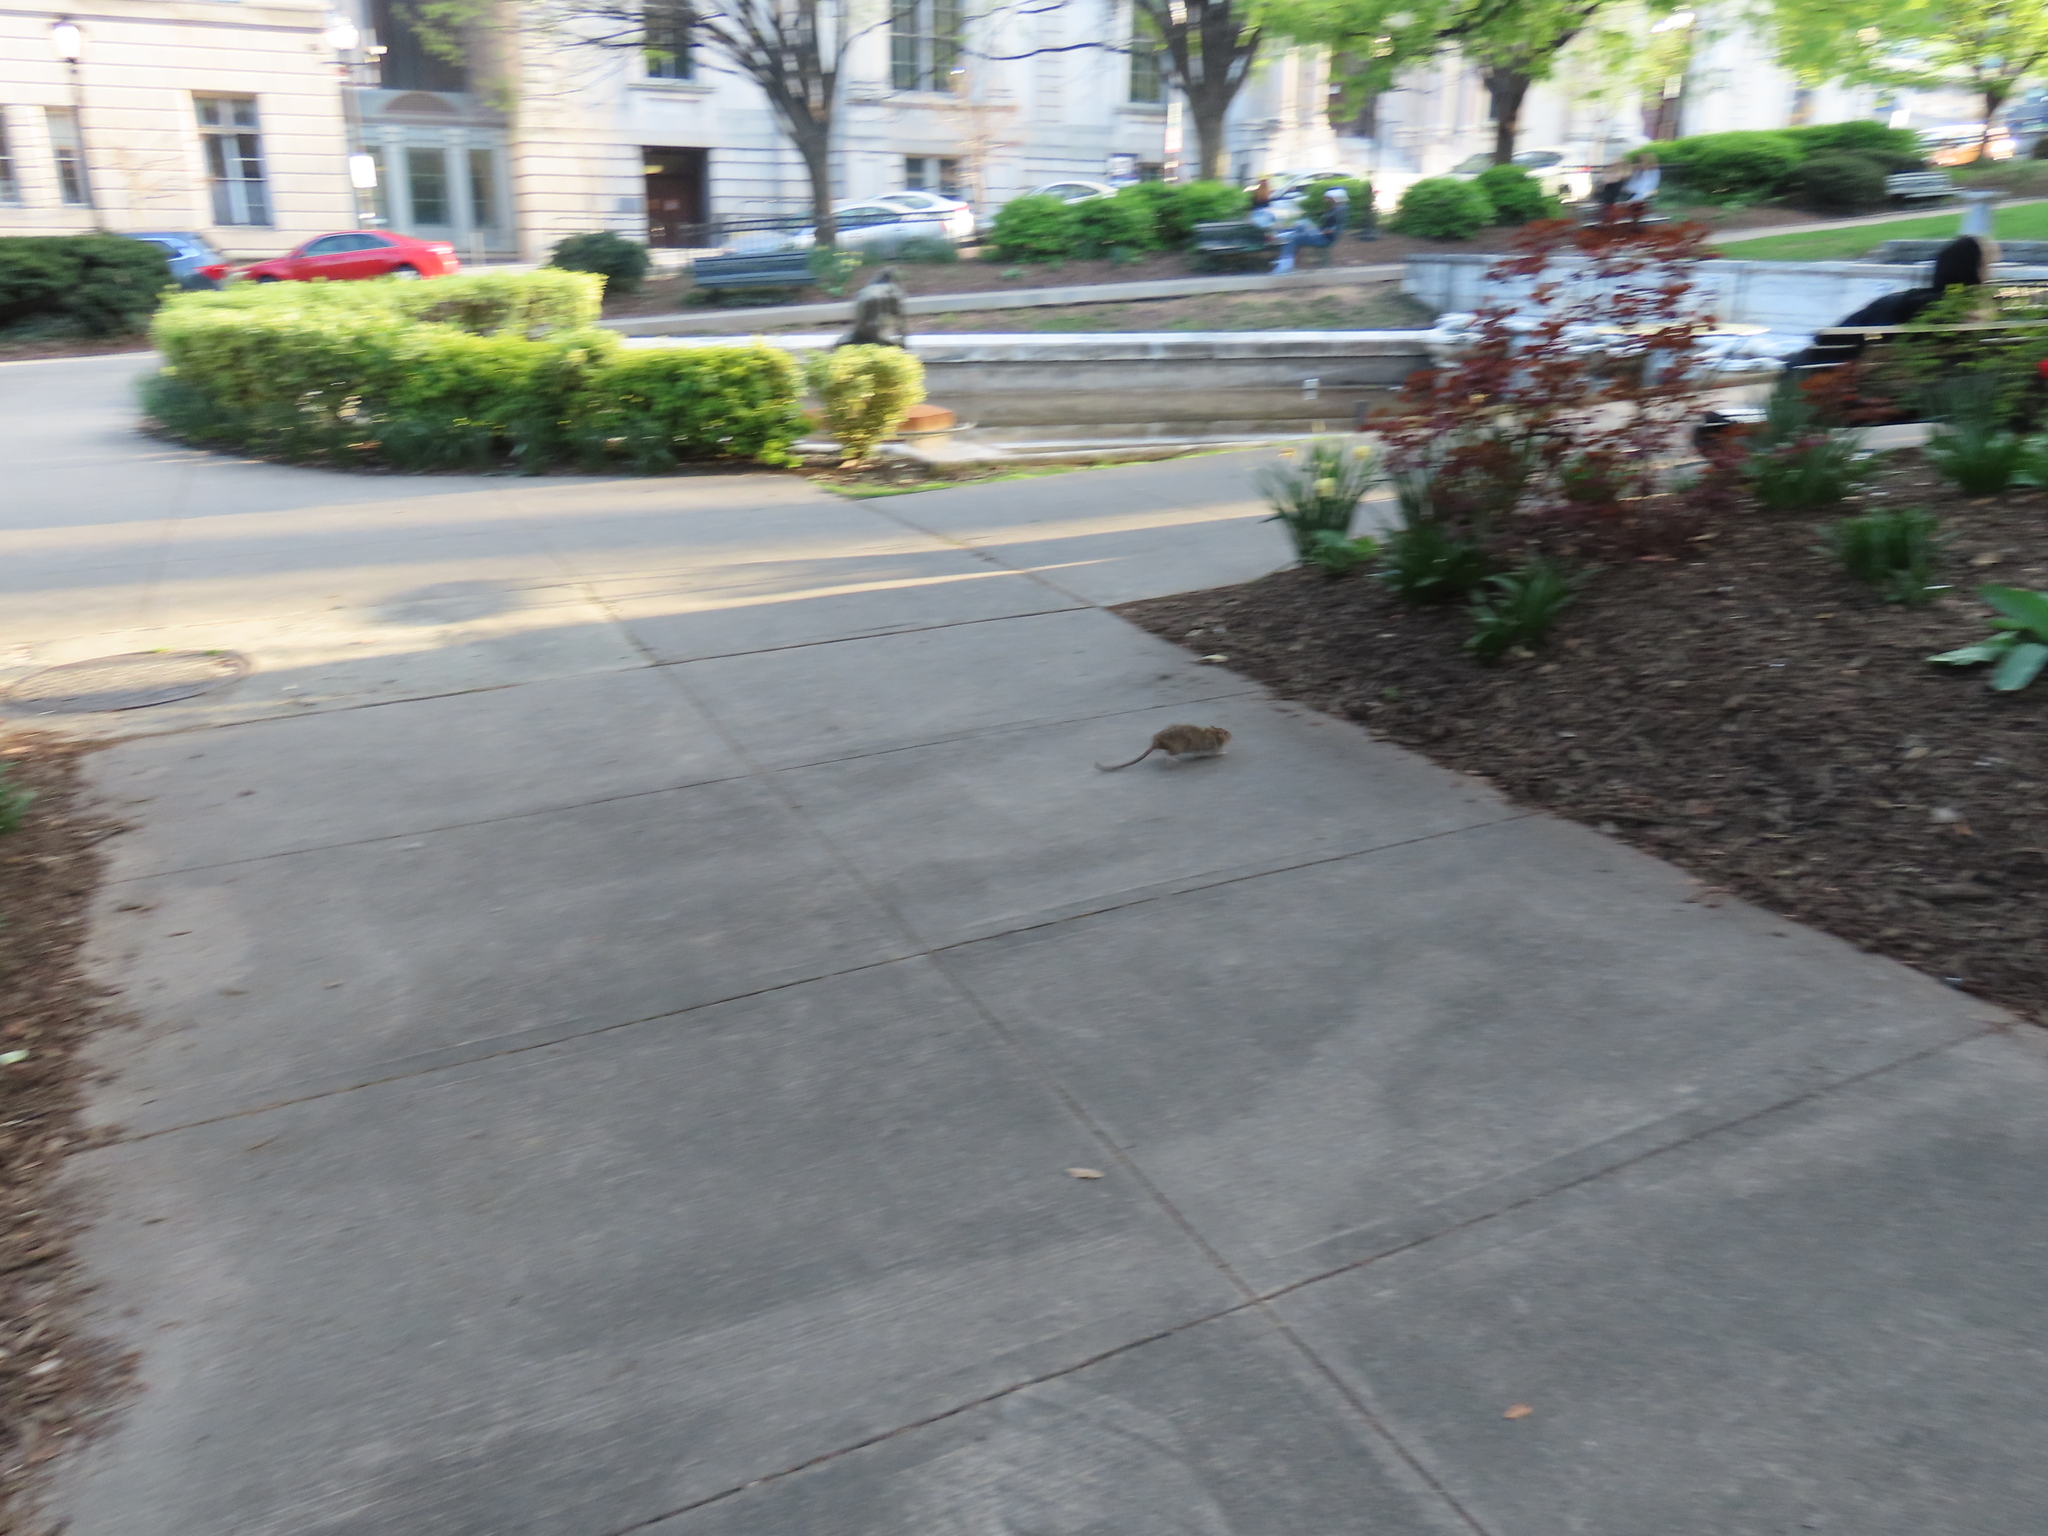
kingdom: Animalia
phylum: Chordata
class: Mammalia
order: Rodentia
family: Muridae
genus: Rattus
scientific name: Rattus norvegicus
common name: Brown rat
